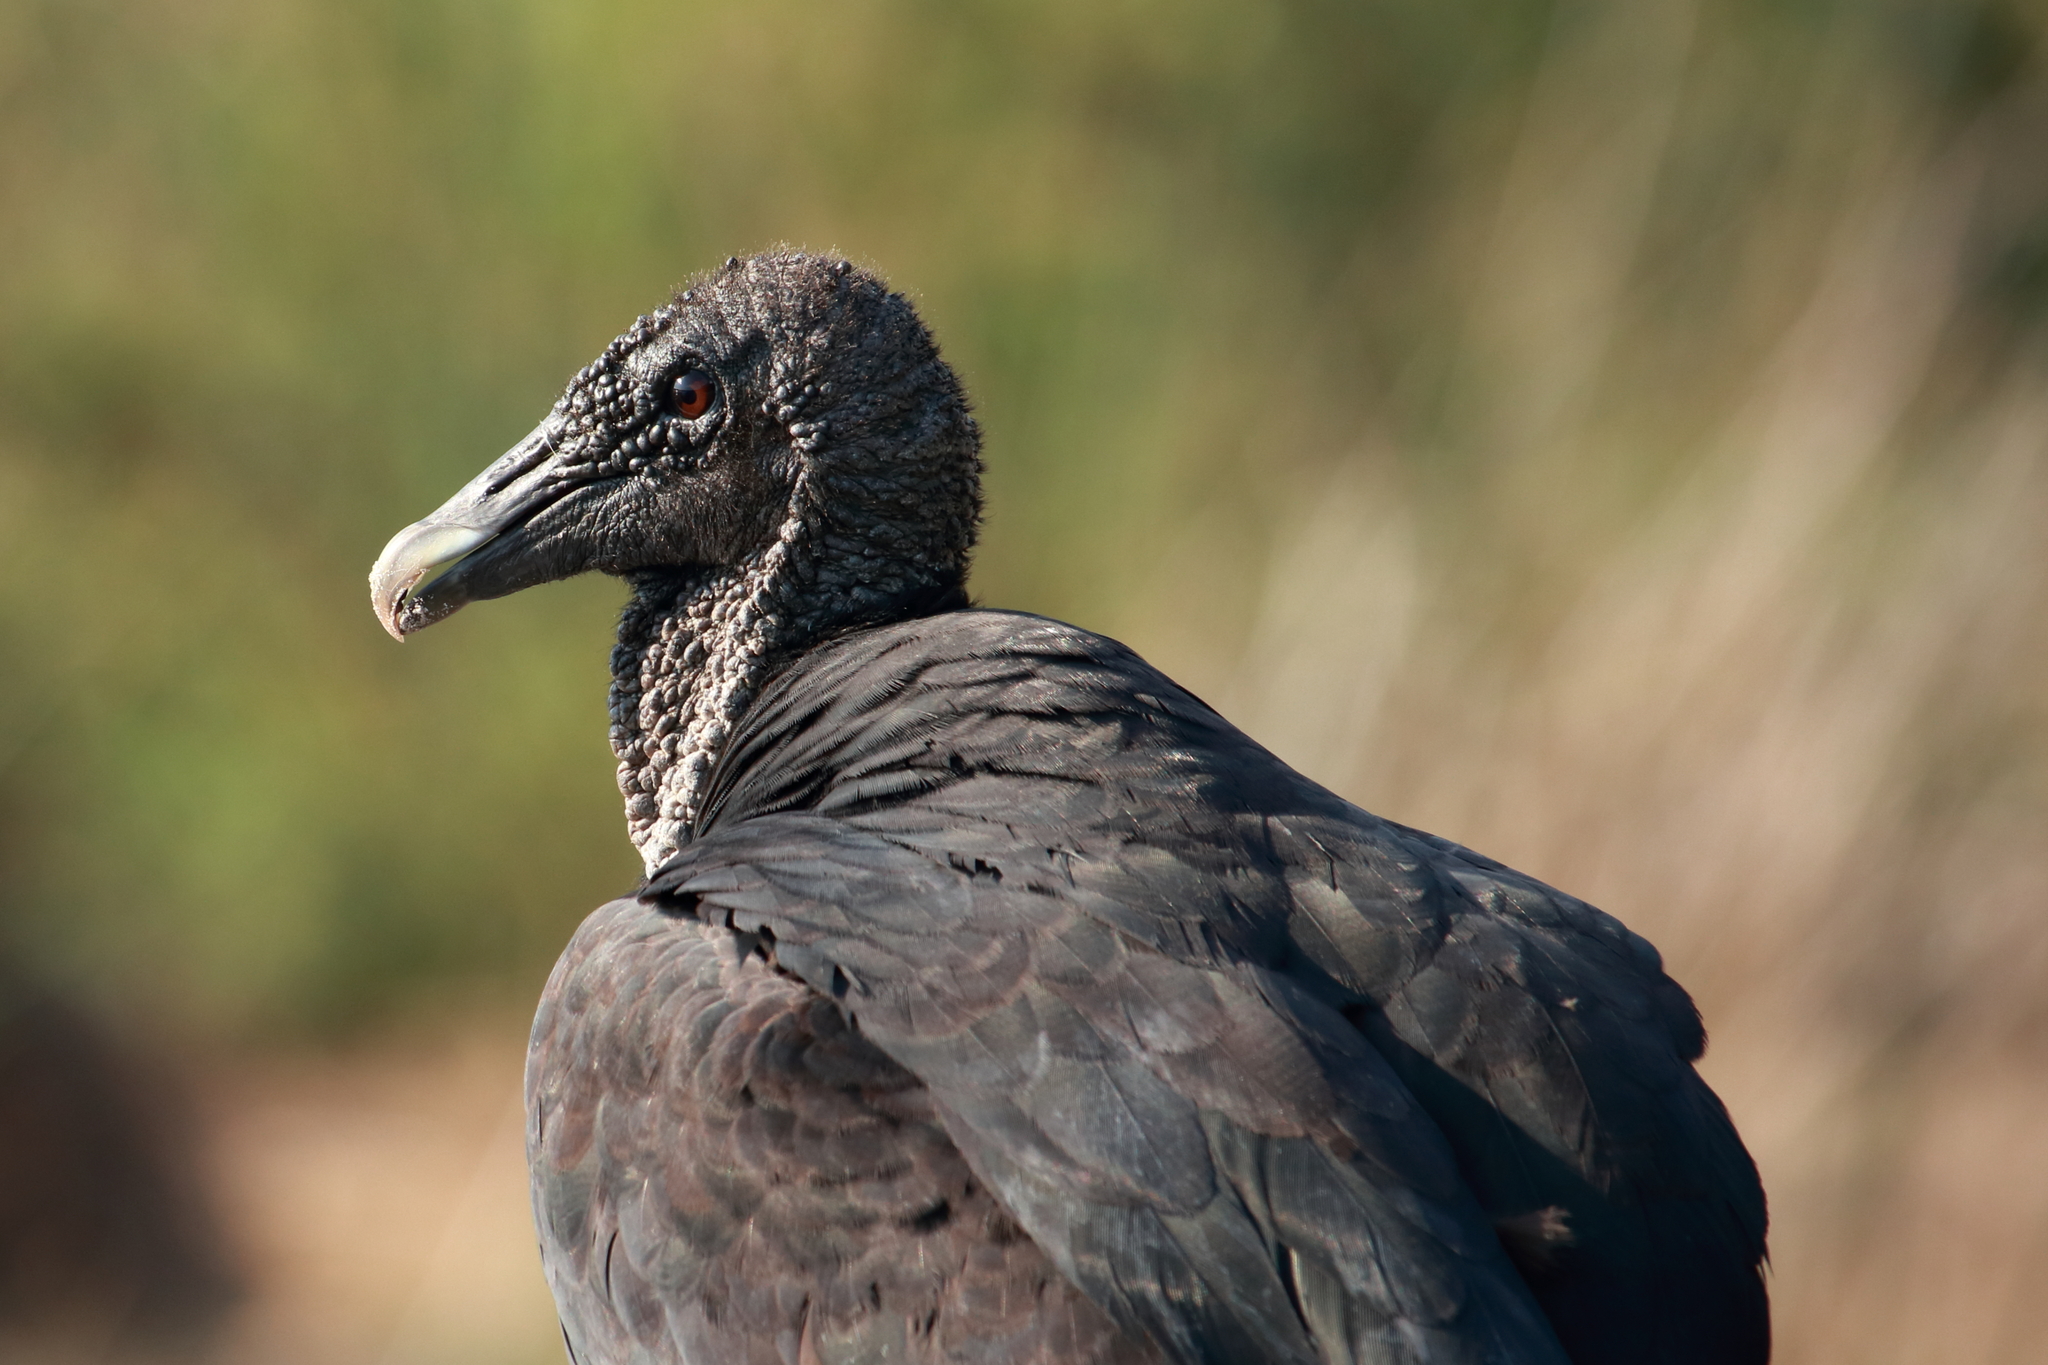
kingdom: Animalia
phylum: Chordata
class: Aves
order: Accipitriformes
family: Cathartidae
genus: Coragyps
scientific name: Coragyps atratus
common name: Black vulture
